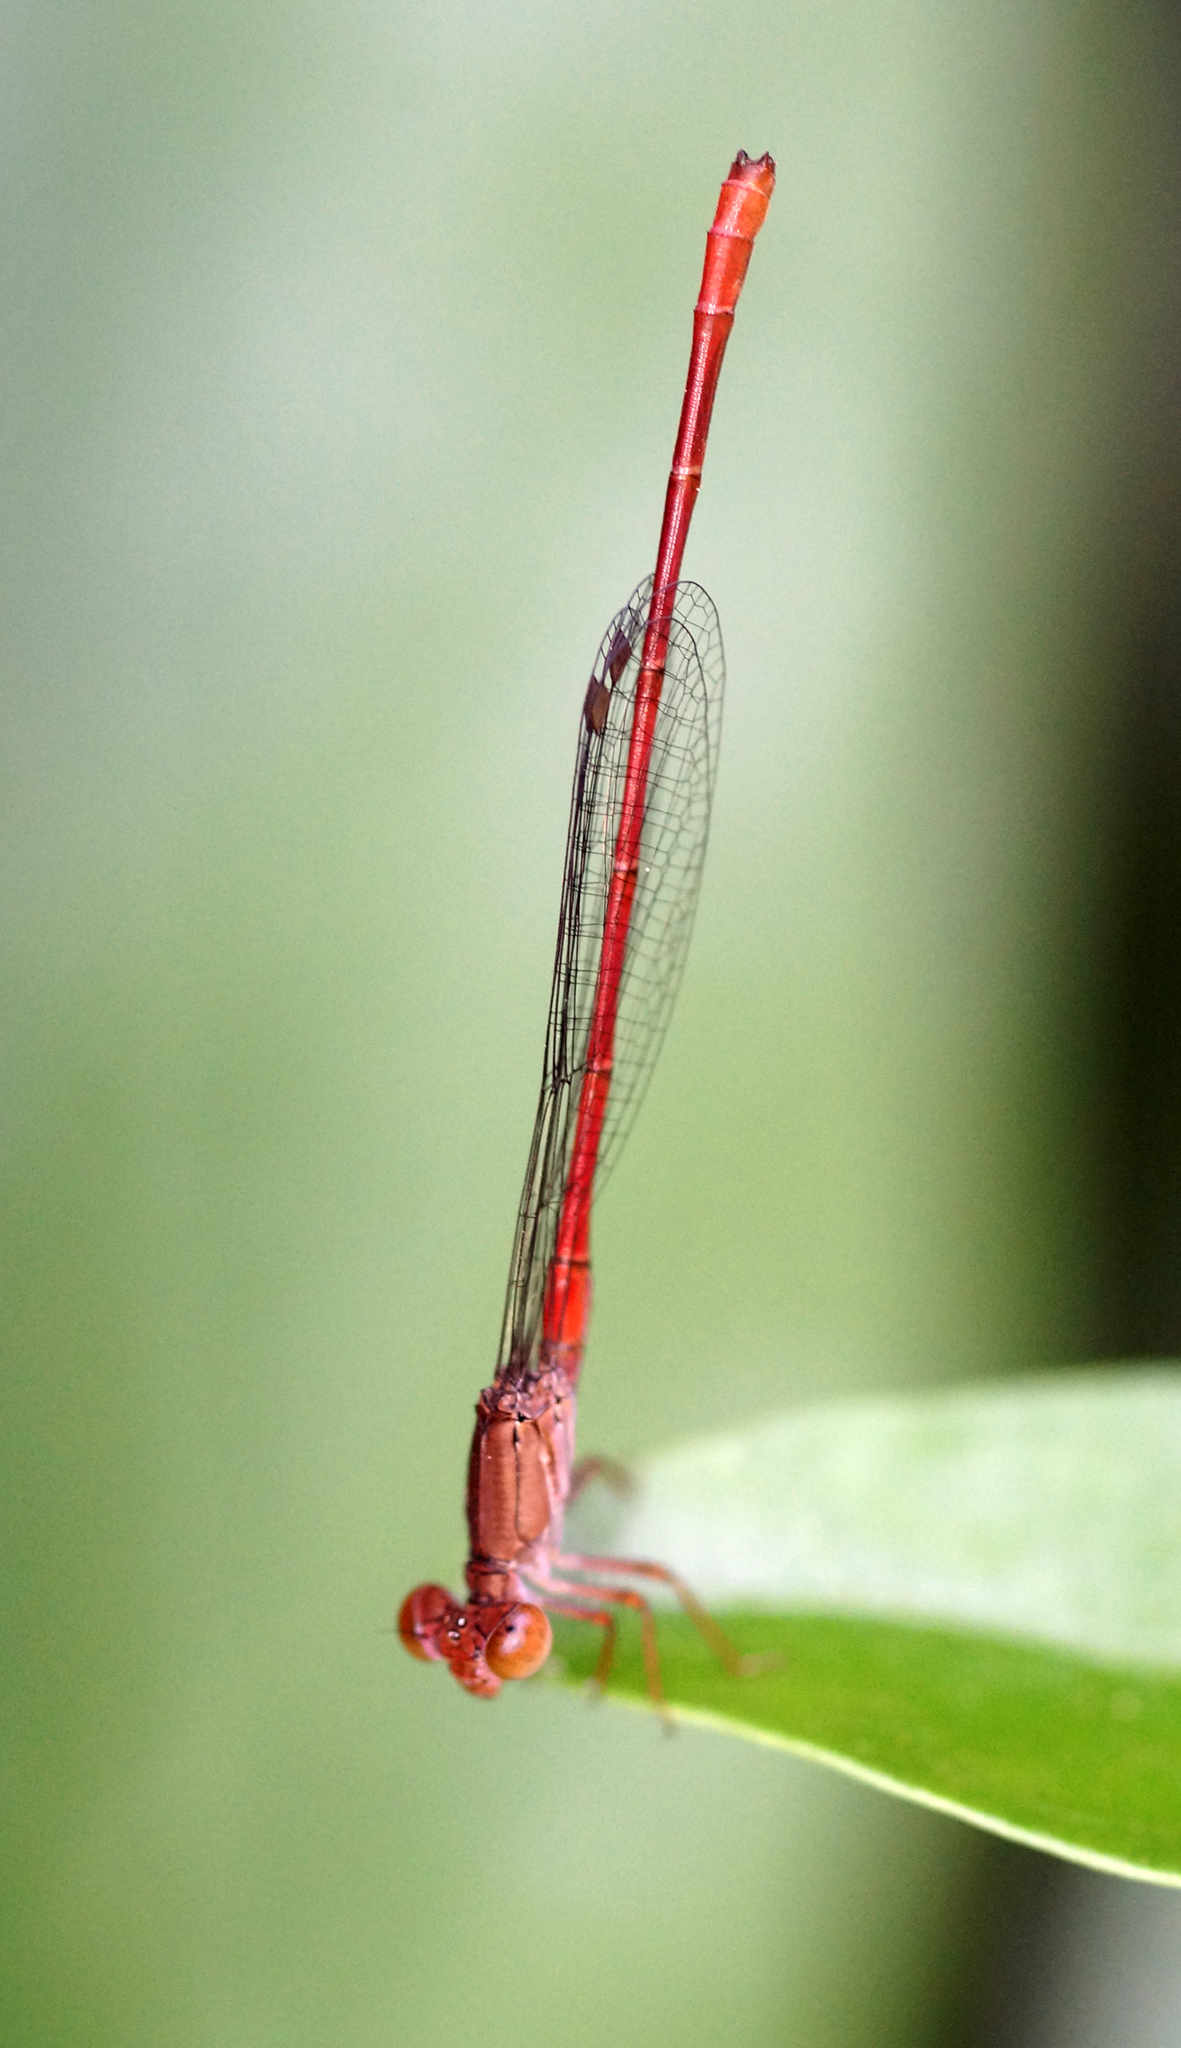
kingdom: Animalia
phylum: Arthropoda
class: Insecta
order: Odonata
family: Coenagrionidae
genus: Ceriagrion
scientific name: Ceriagrion praetermissum
